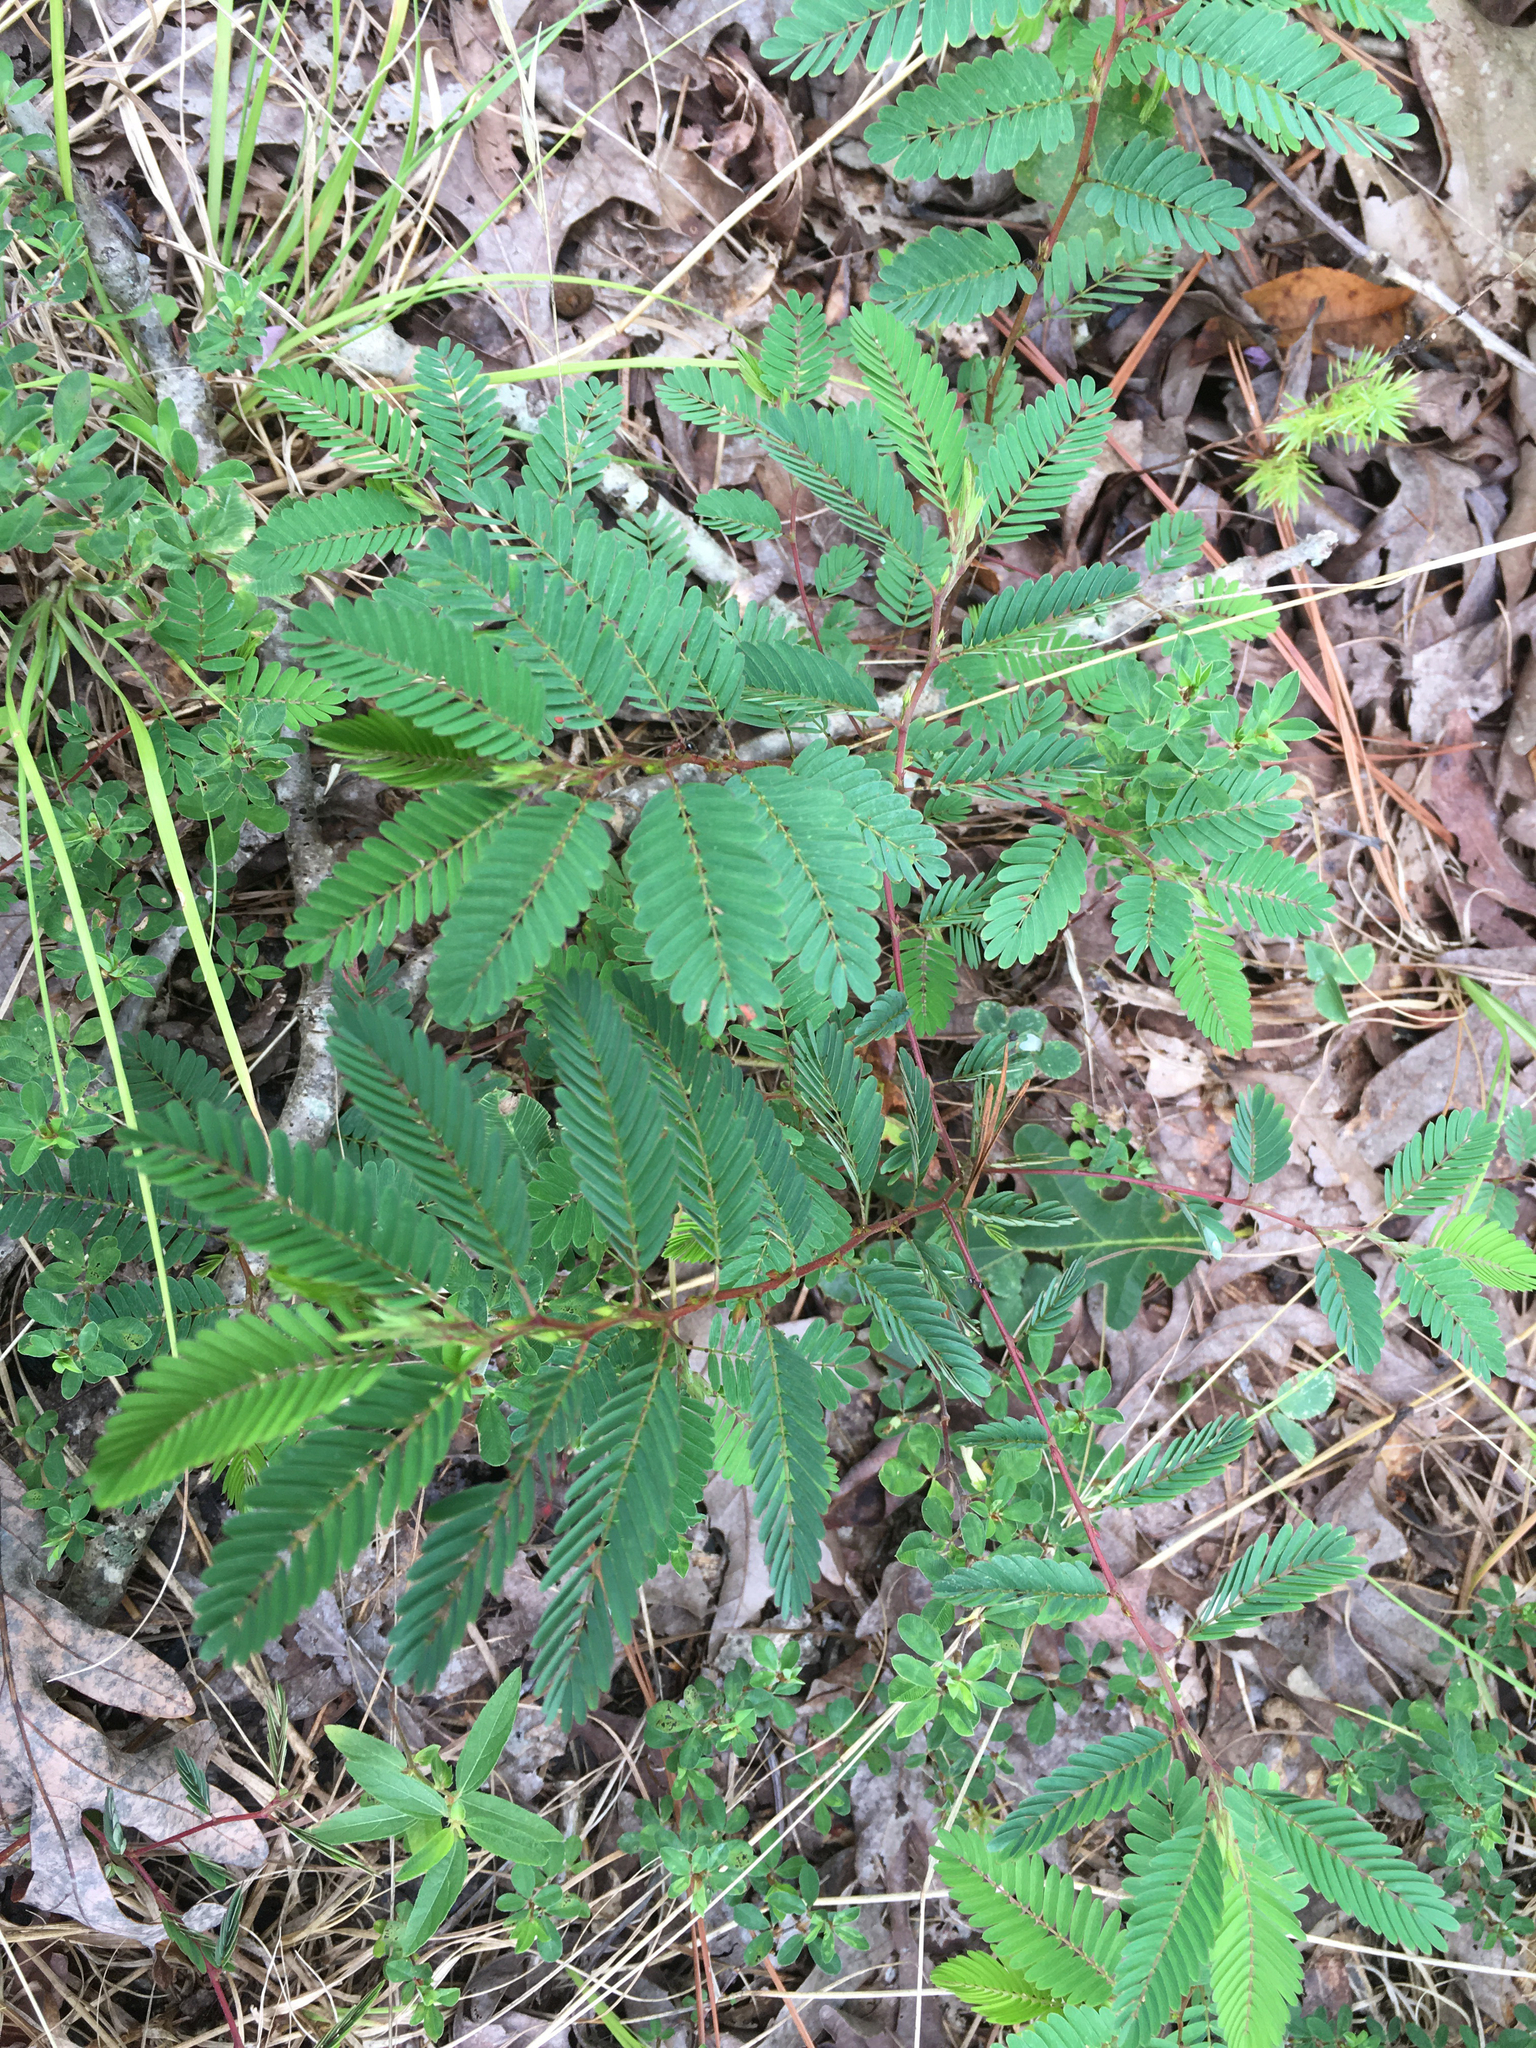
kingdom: Plantae
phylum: Tracheophyta
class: Magnoliopsida
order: Fabales
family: Fabaceae
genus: Chamaecrista
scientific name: Chamaecrista nictitans
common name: Sensitive cassia
